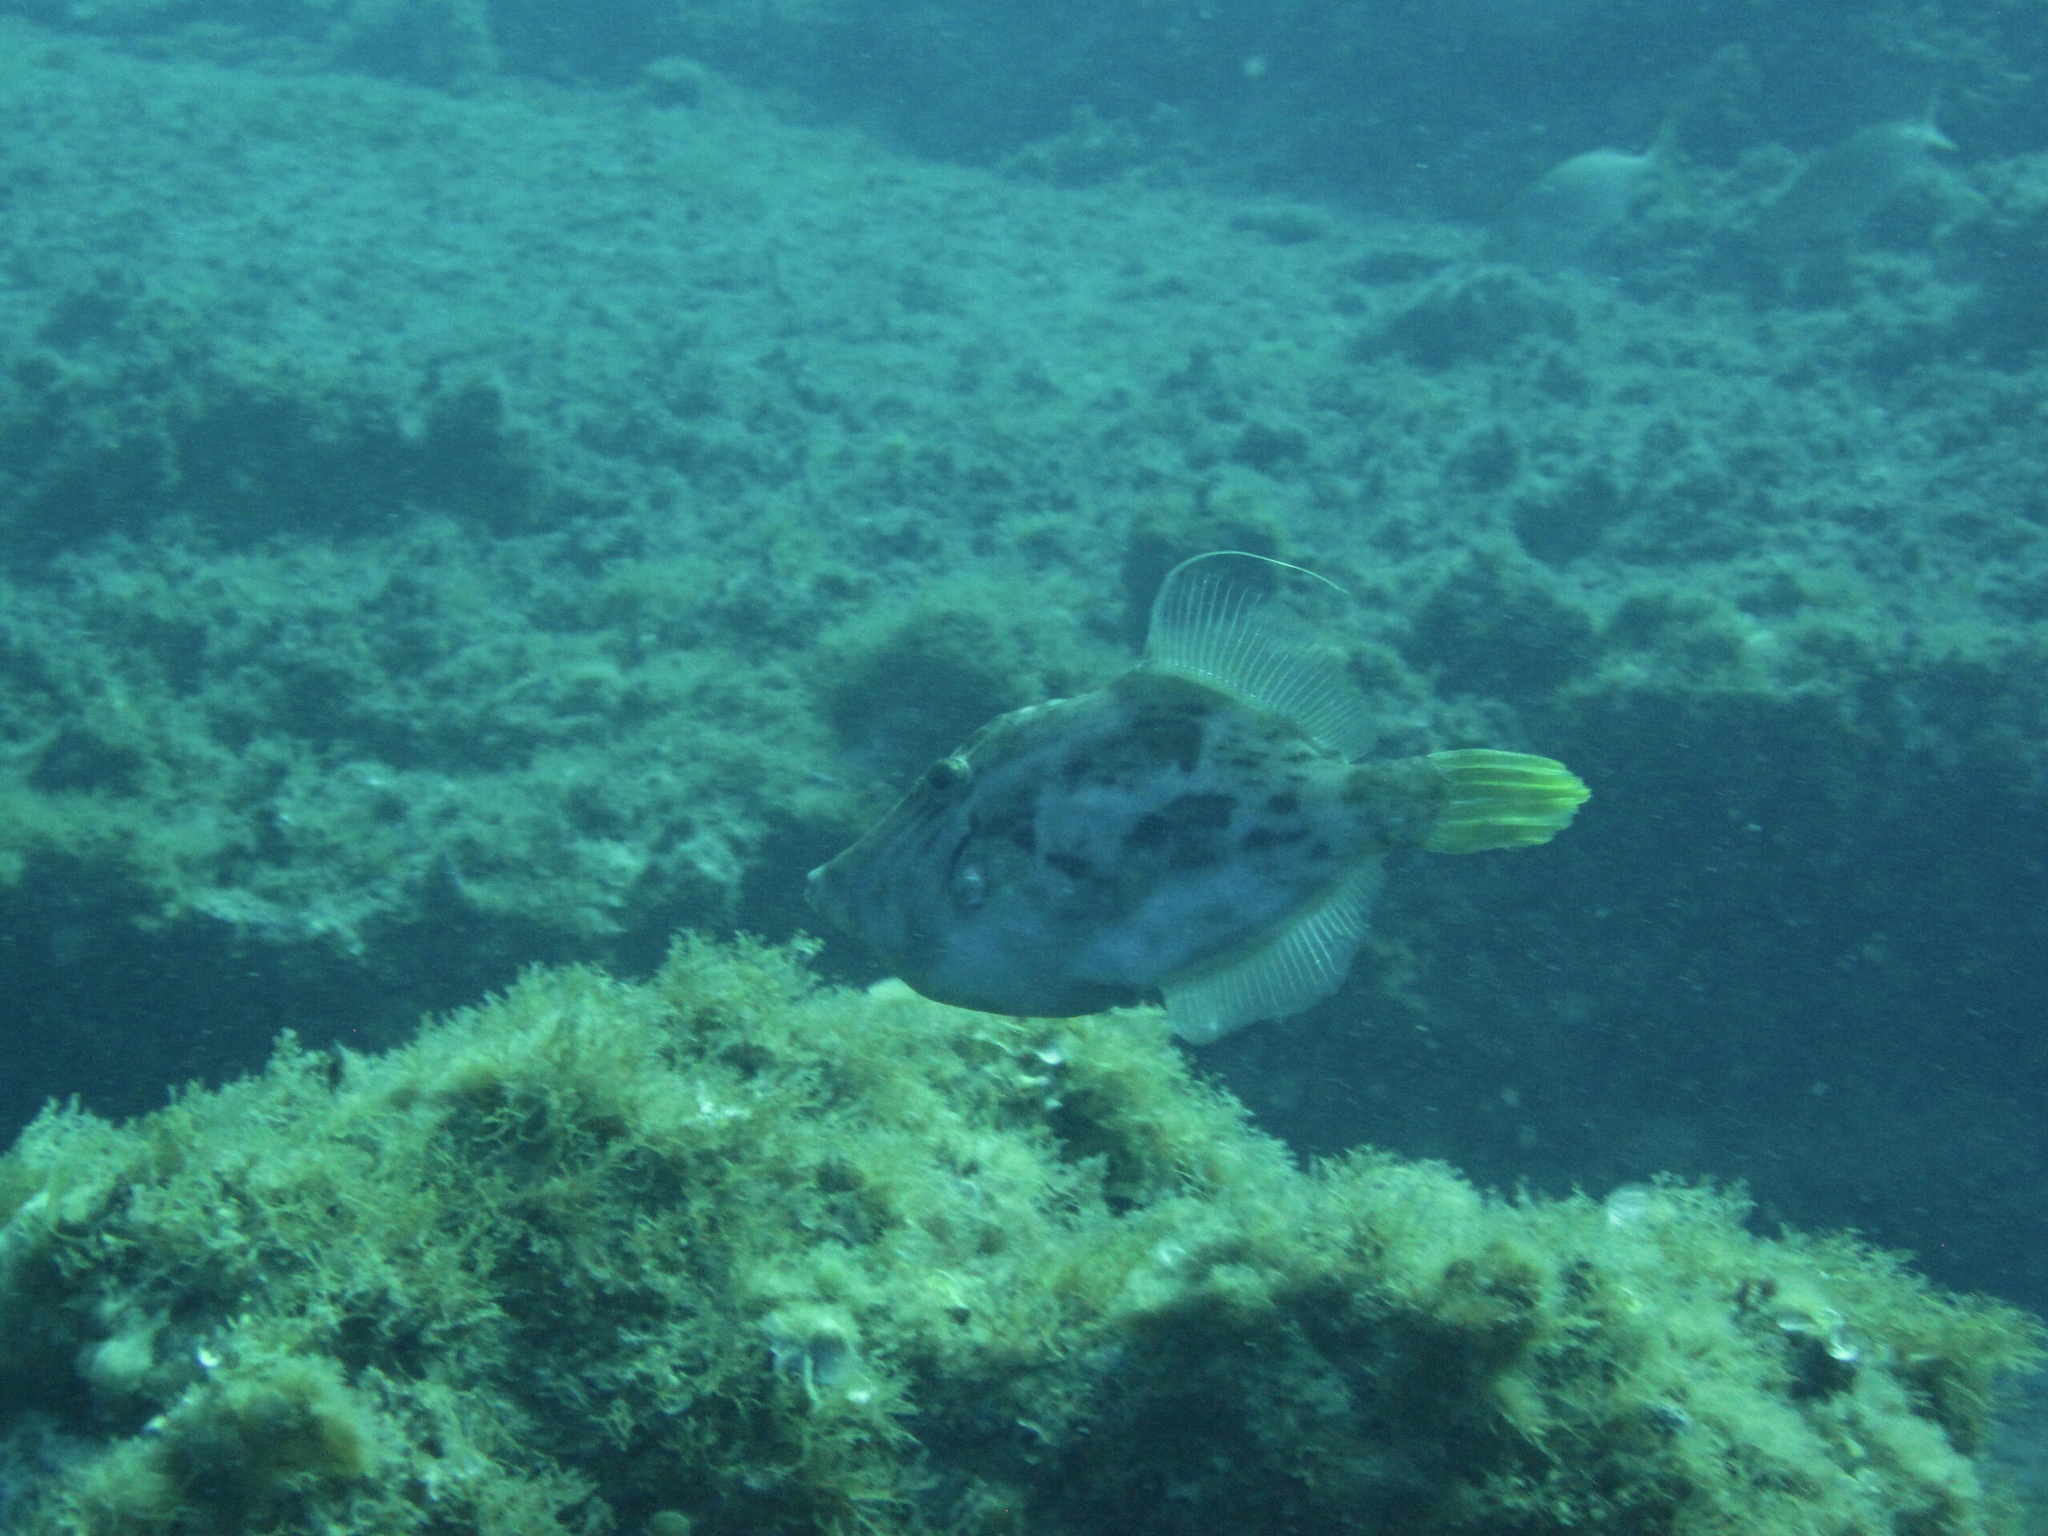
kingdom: Animalia
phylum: Chordata
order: Tetraodontiformes
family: Monacanthidae
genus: Stephanolepis
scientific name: Stephanolepis hispidus
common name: Planehead filefish
